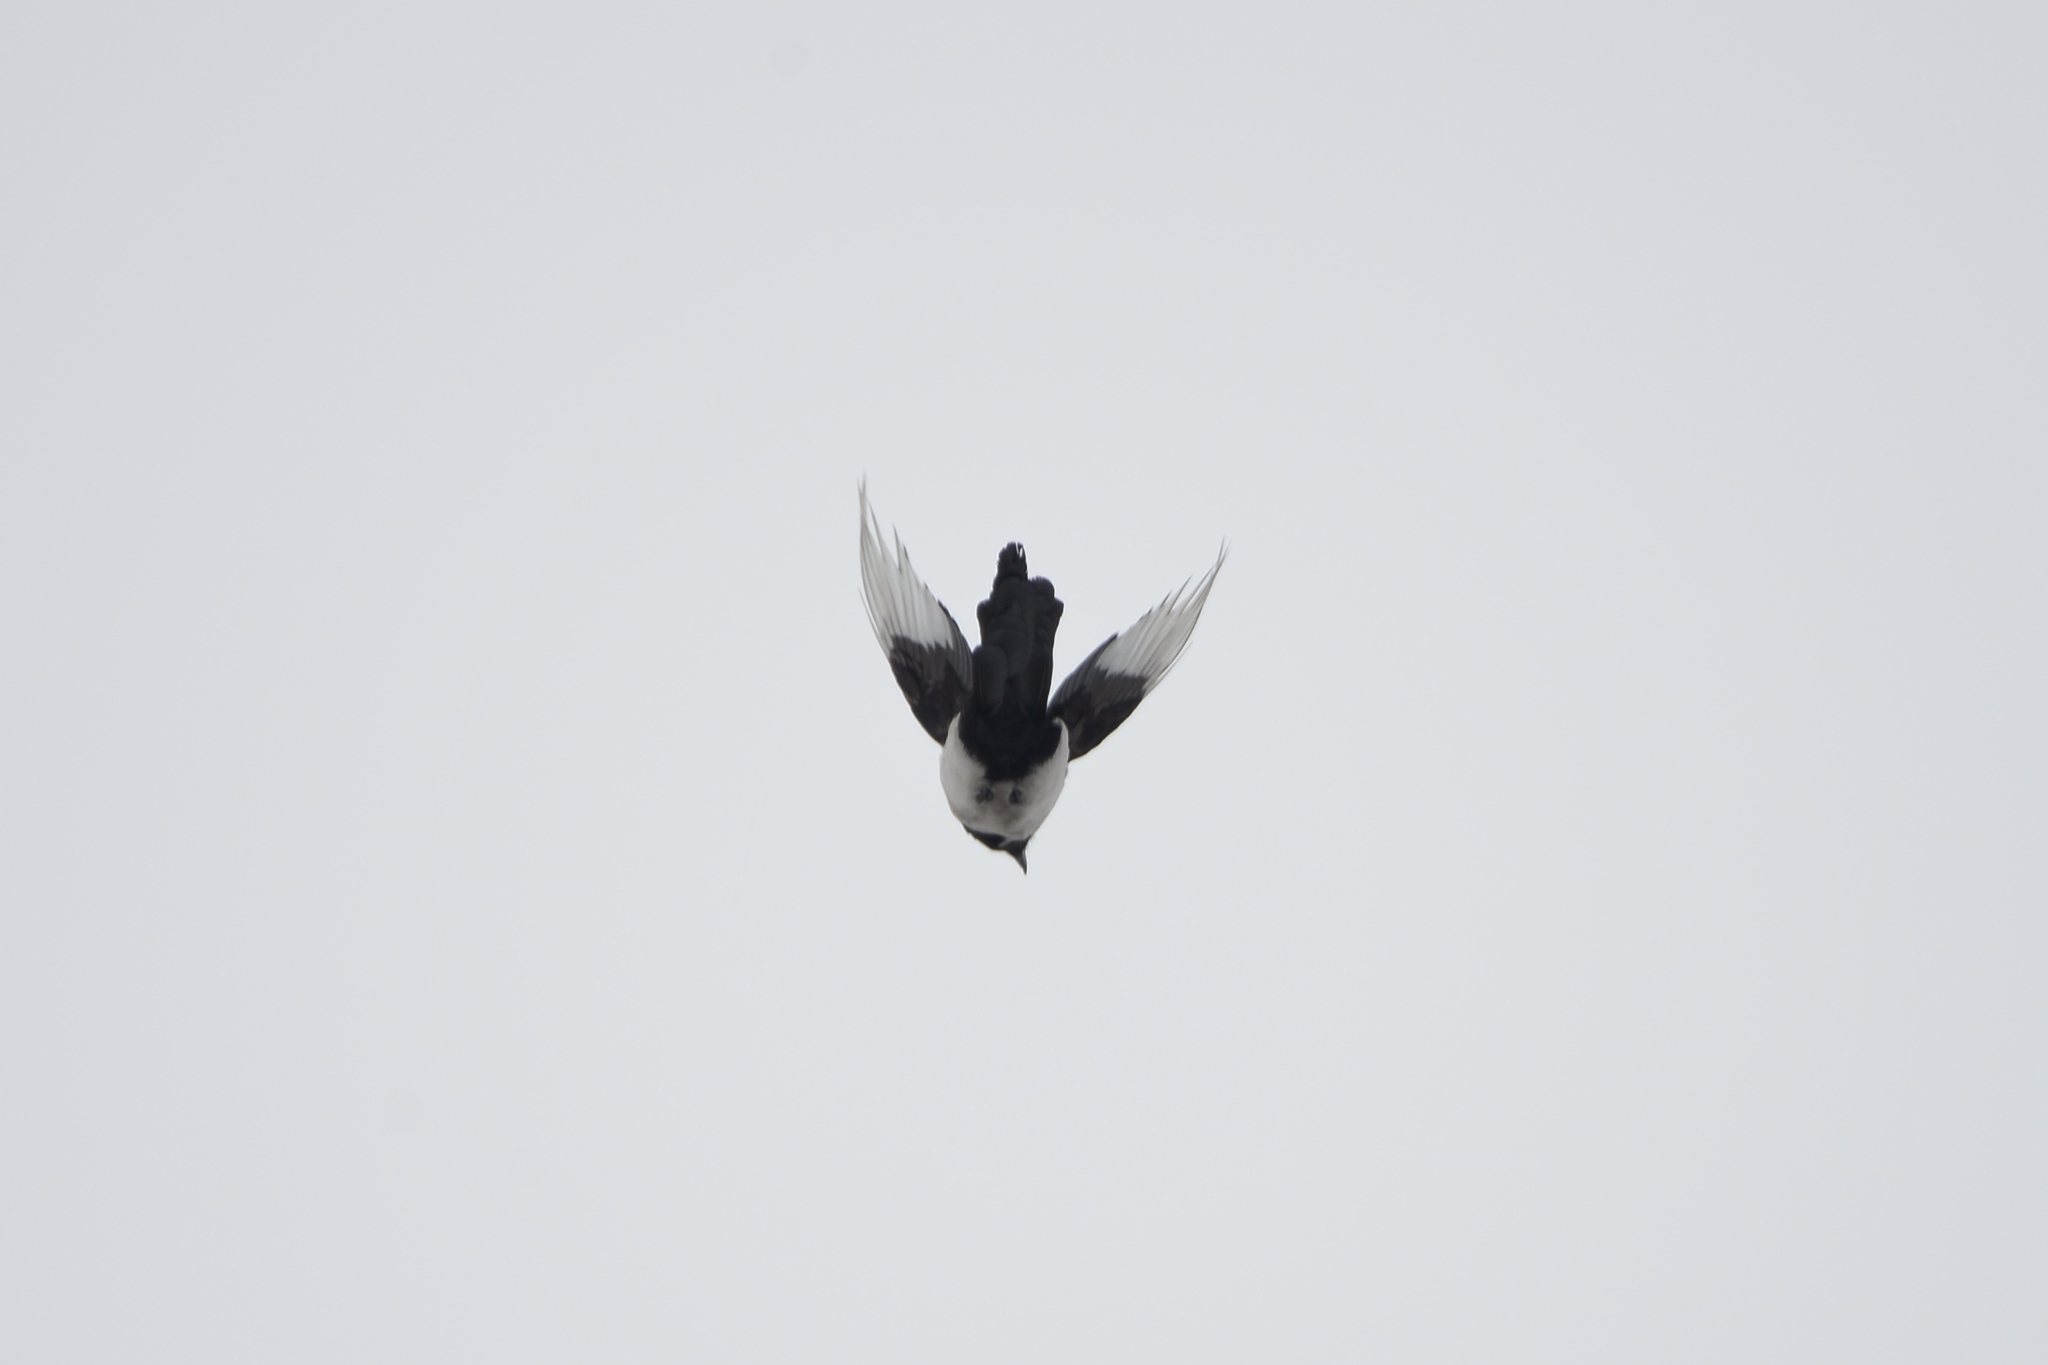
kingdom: Animalia
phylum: Chordata
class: Aves
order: Passeriformes
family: Corvidae
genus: Pica
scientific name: Pica pica
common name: Eurasian magpie
